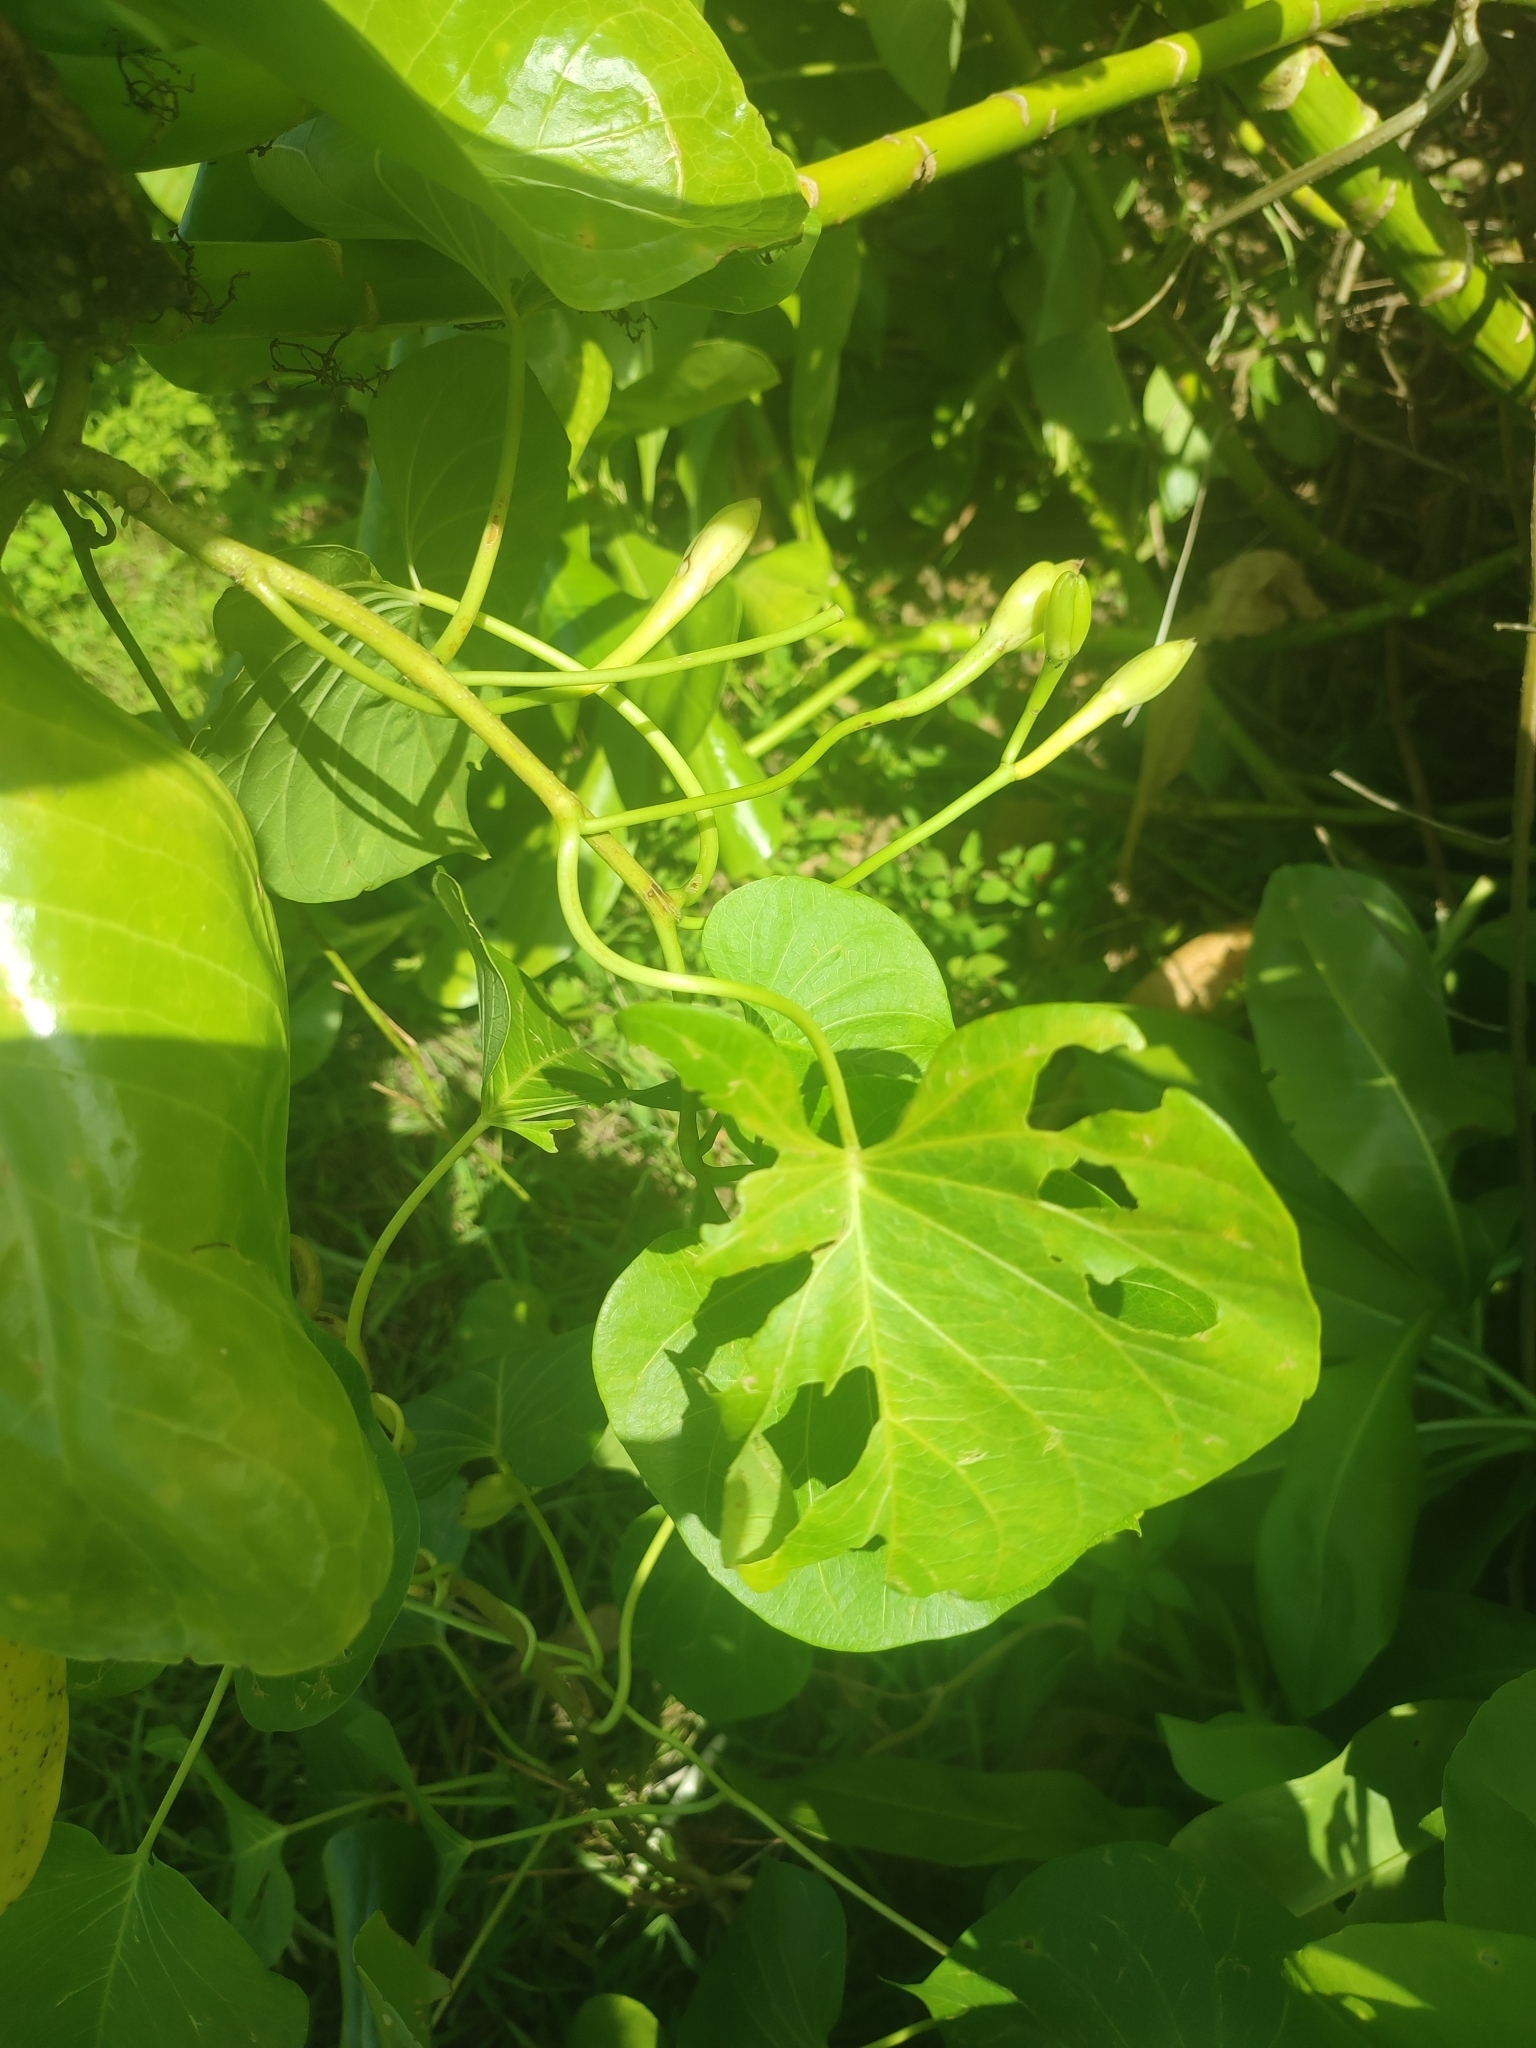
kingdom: Plantae
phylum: Tracheophyta
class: Magnoliopsida
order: Solanales
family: Convolvulaceae
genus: Ipomoea
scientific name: Ipomoea violacea
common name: Beach moonflower
